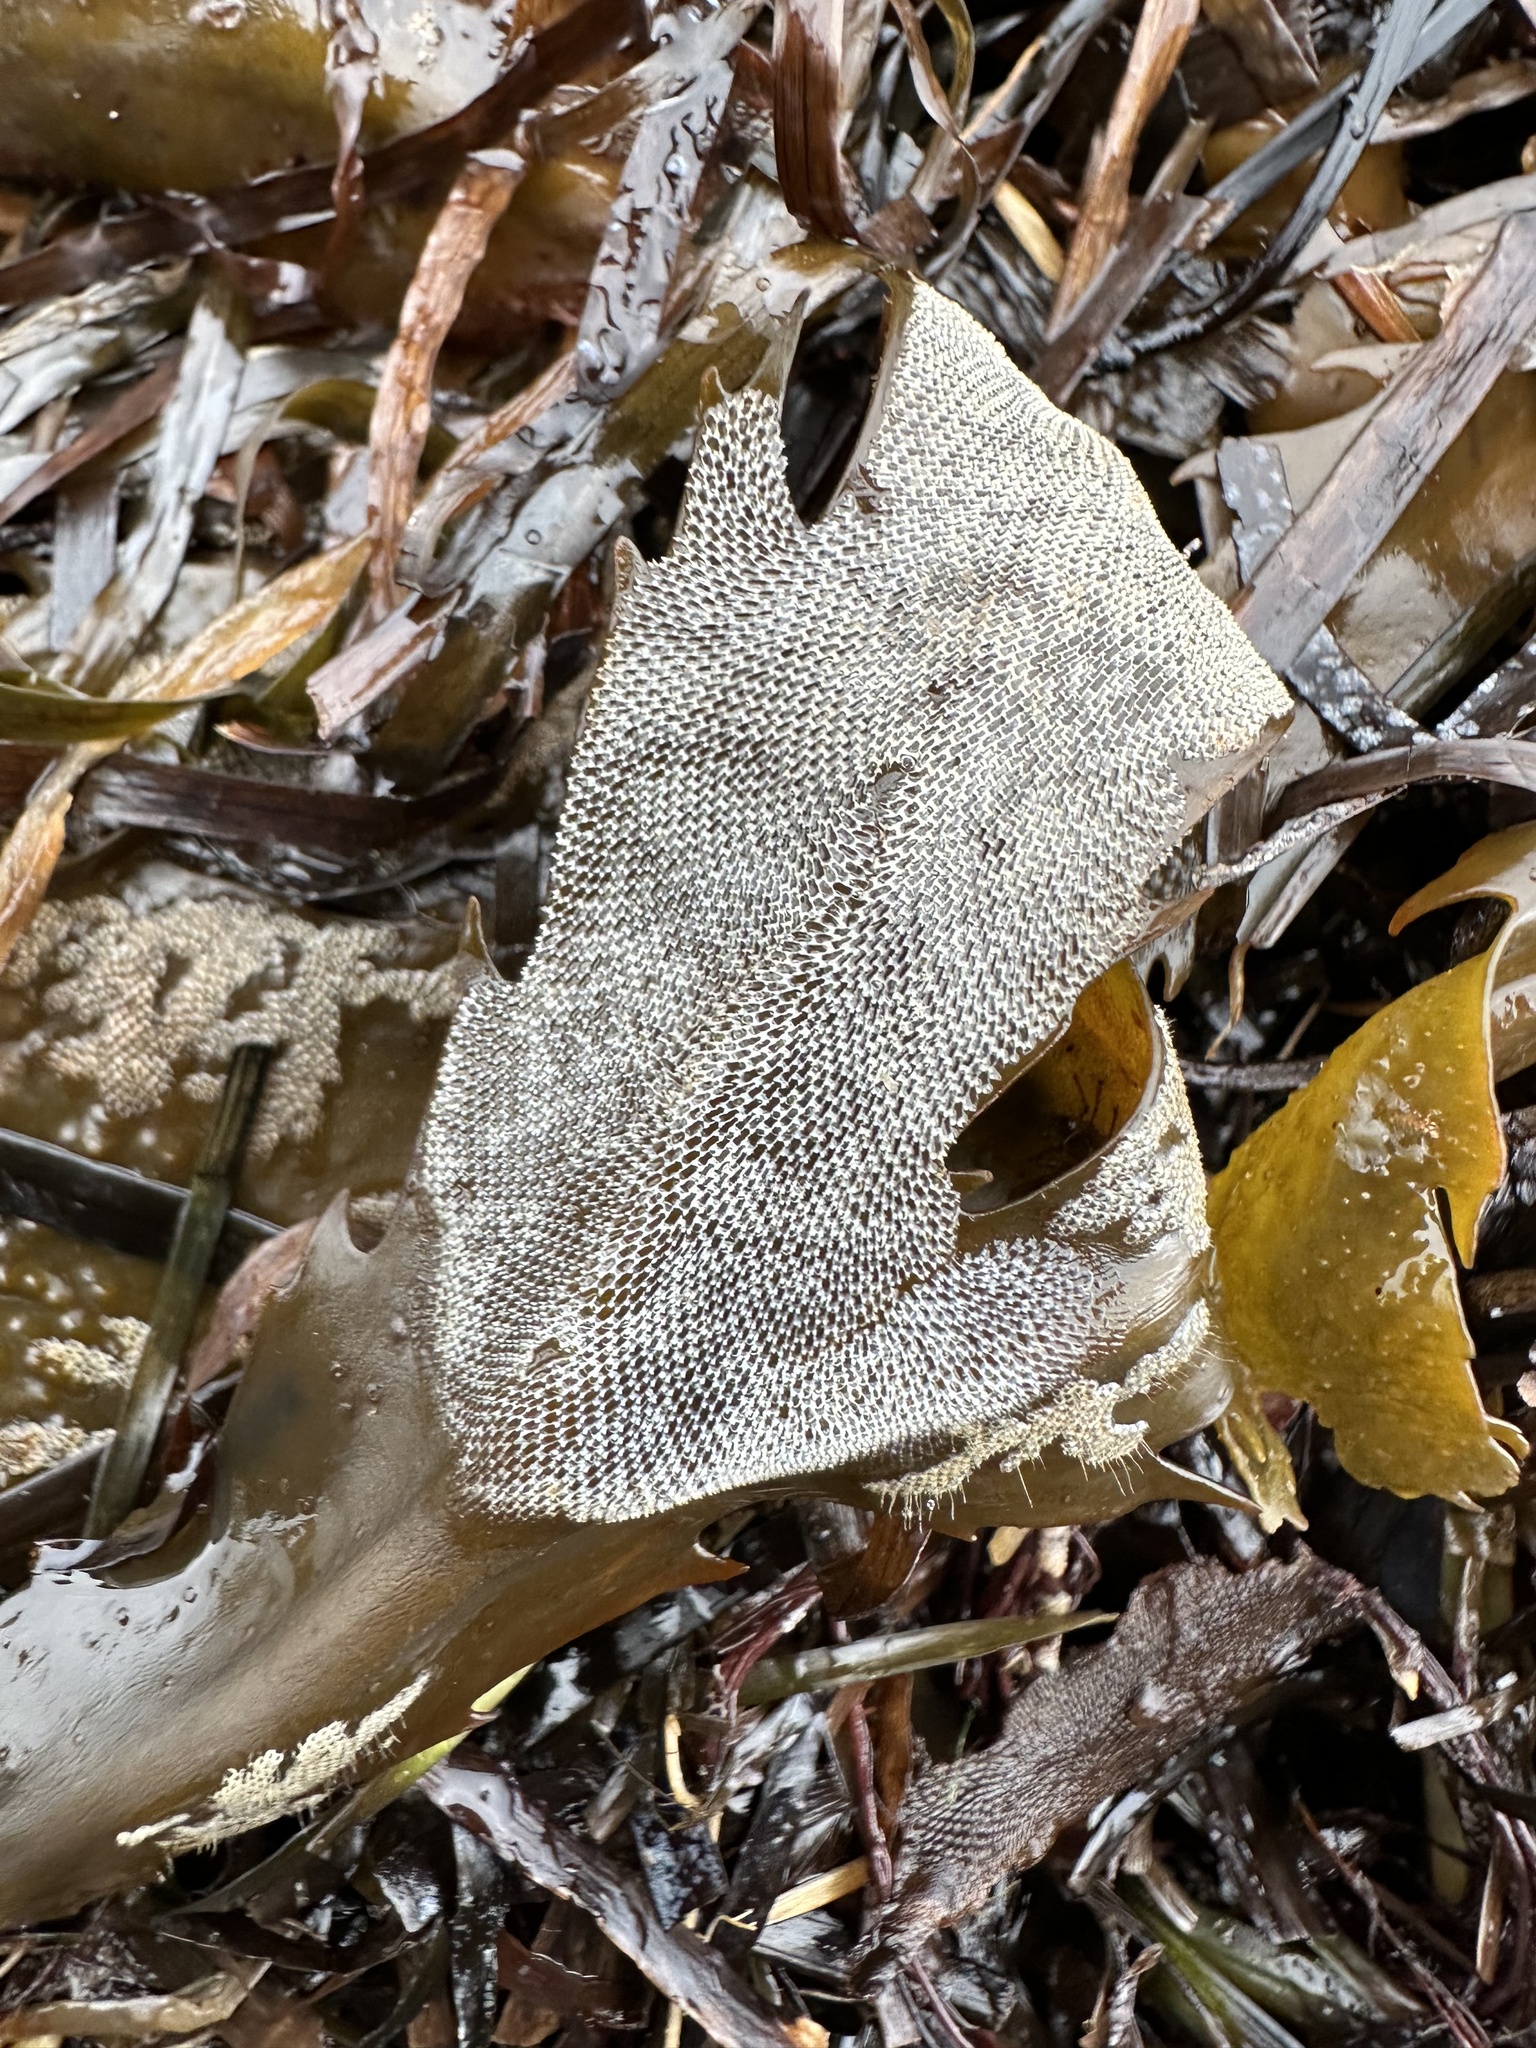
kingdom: Animalia
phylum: Bryozoa
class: Gymnolaemata
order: Cheilostomatida
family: Membraniporidae
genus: Membranipora
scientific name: Membranipora membranacea
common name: Sea mat
